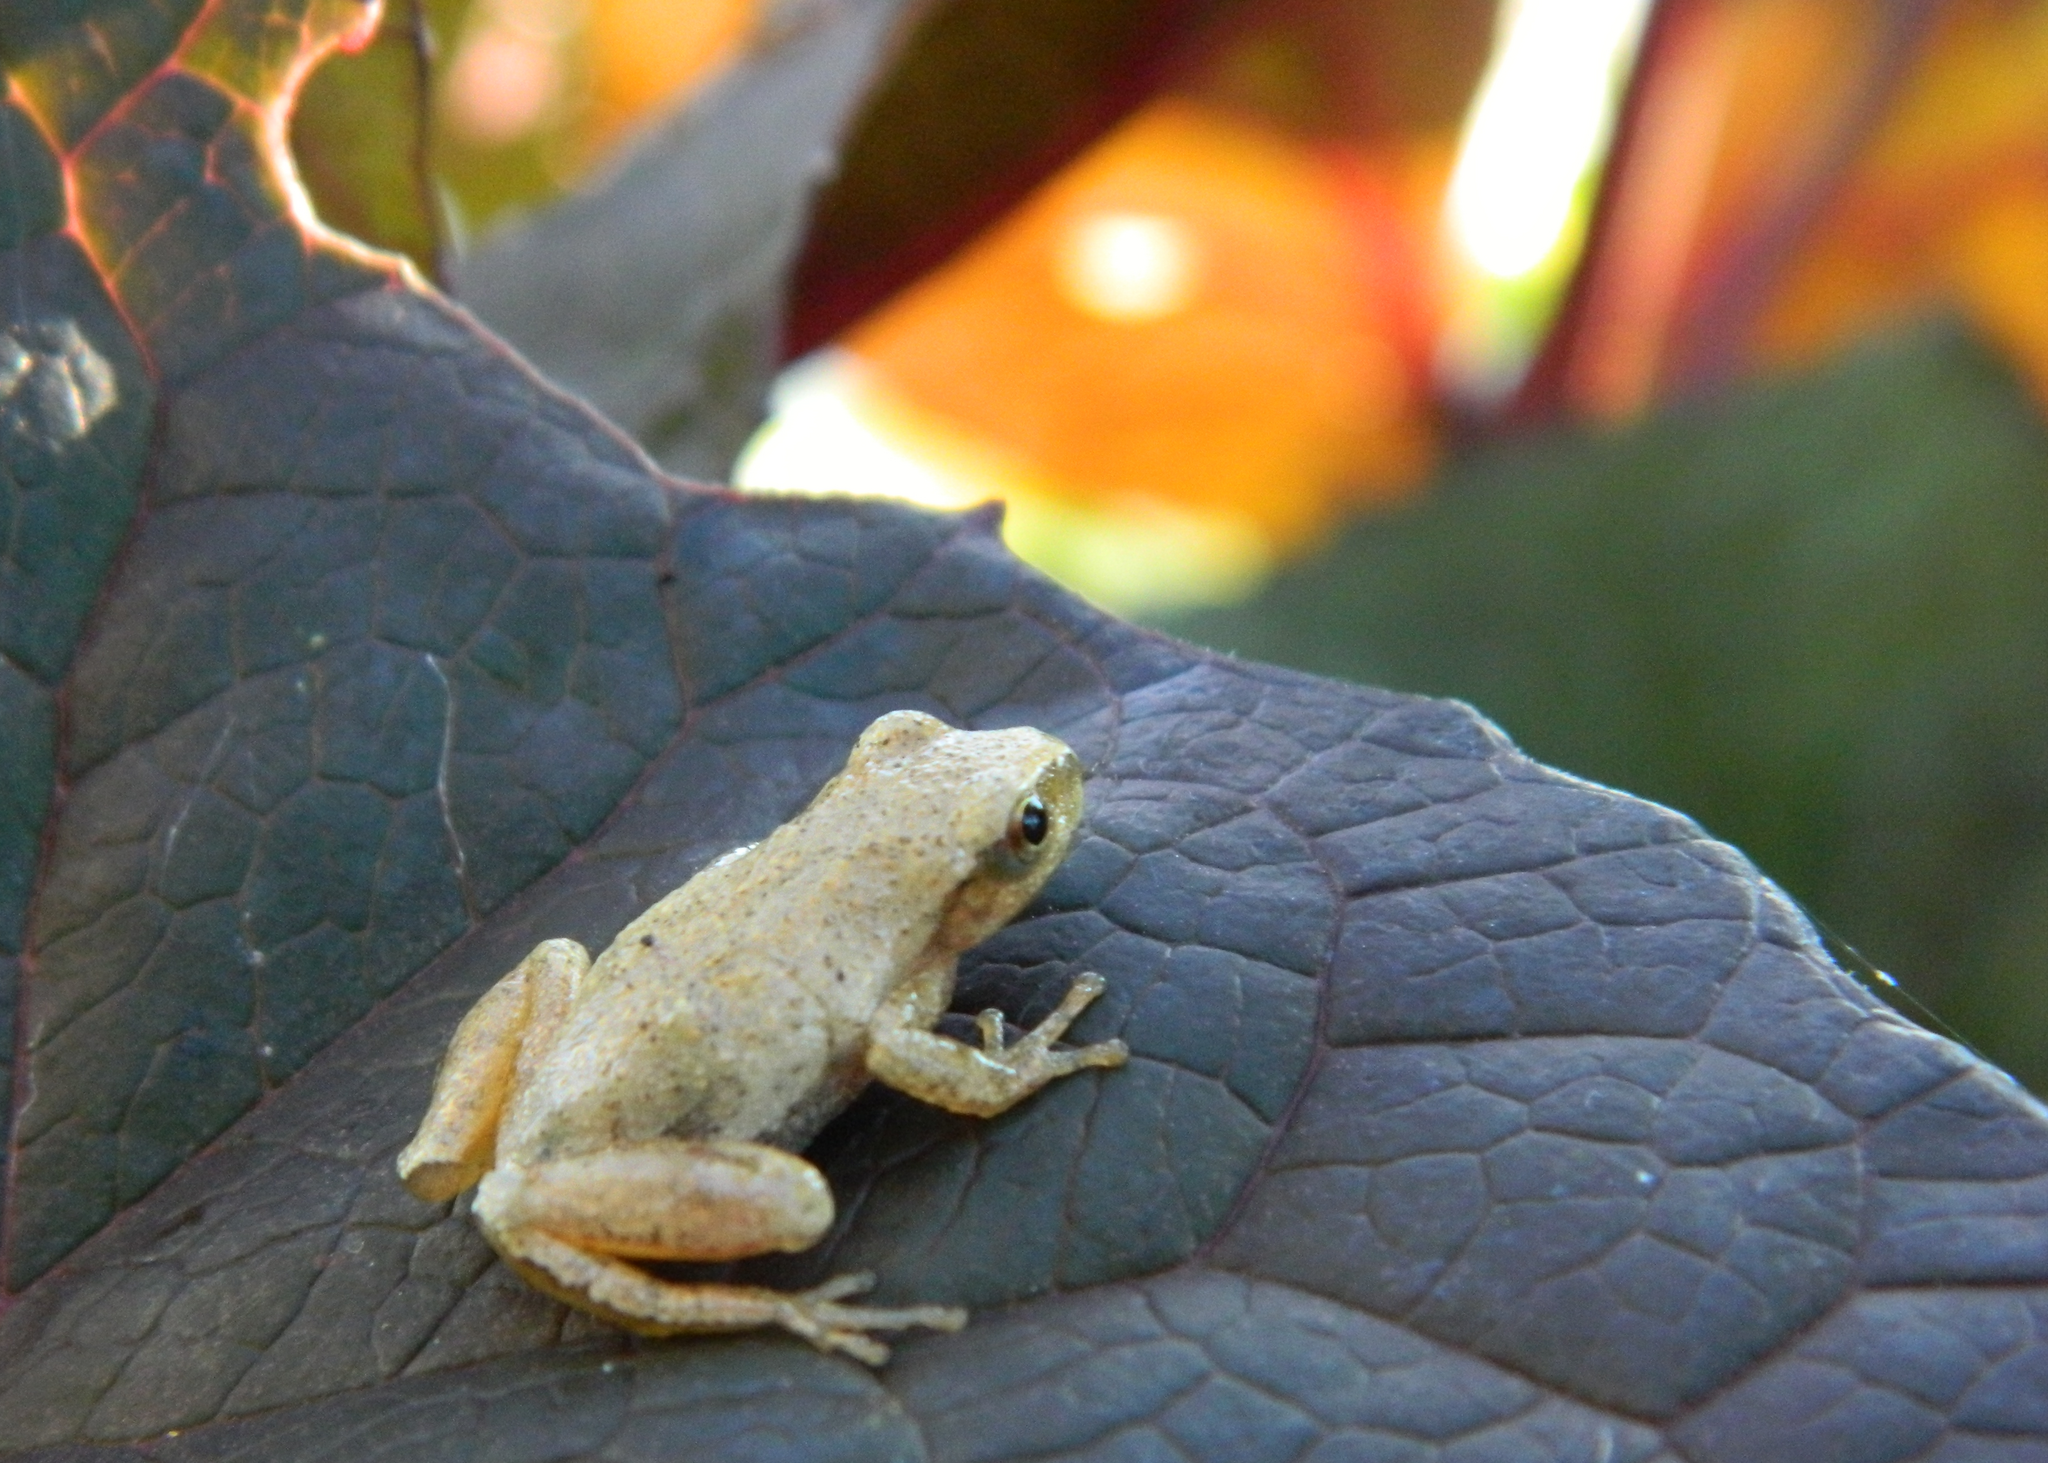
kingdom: Animalia
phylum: Chordata
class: Amphibia
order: Anura
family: Hylidae
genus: Pseudacris
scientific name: Pseudacris crucifer
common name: Spring peeper
